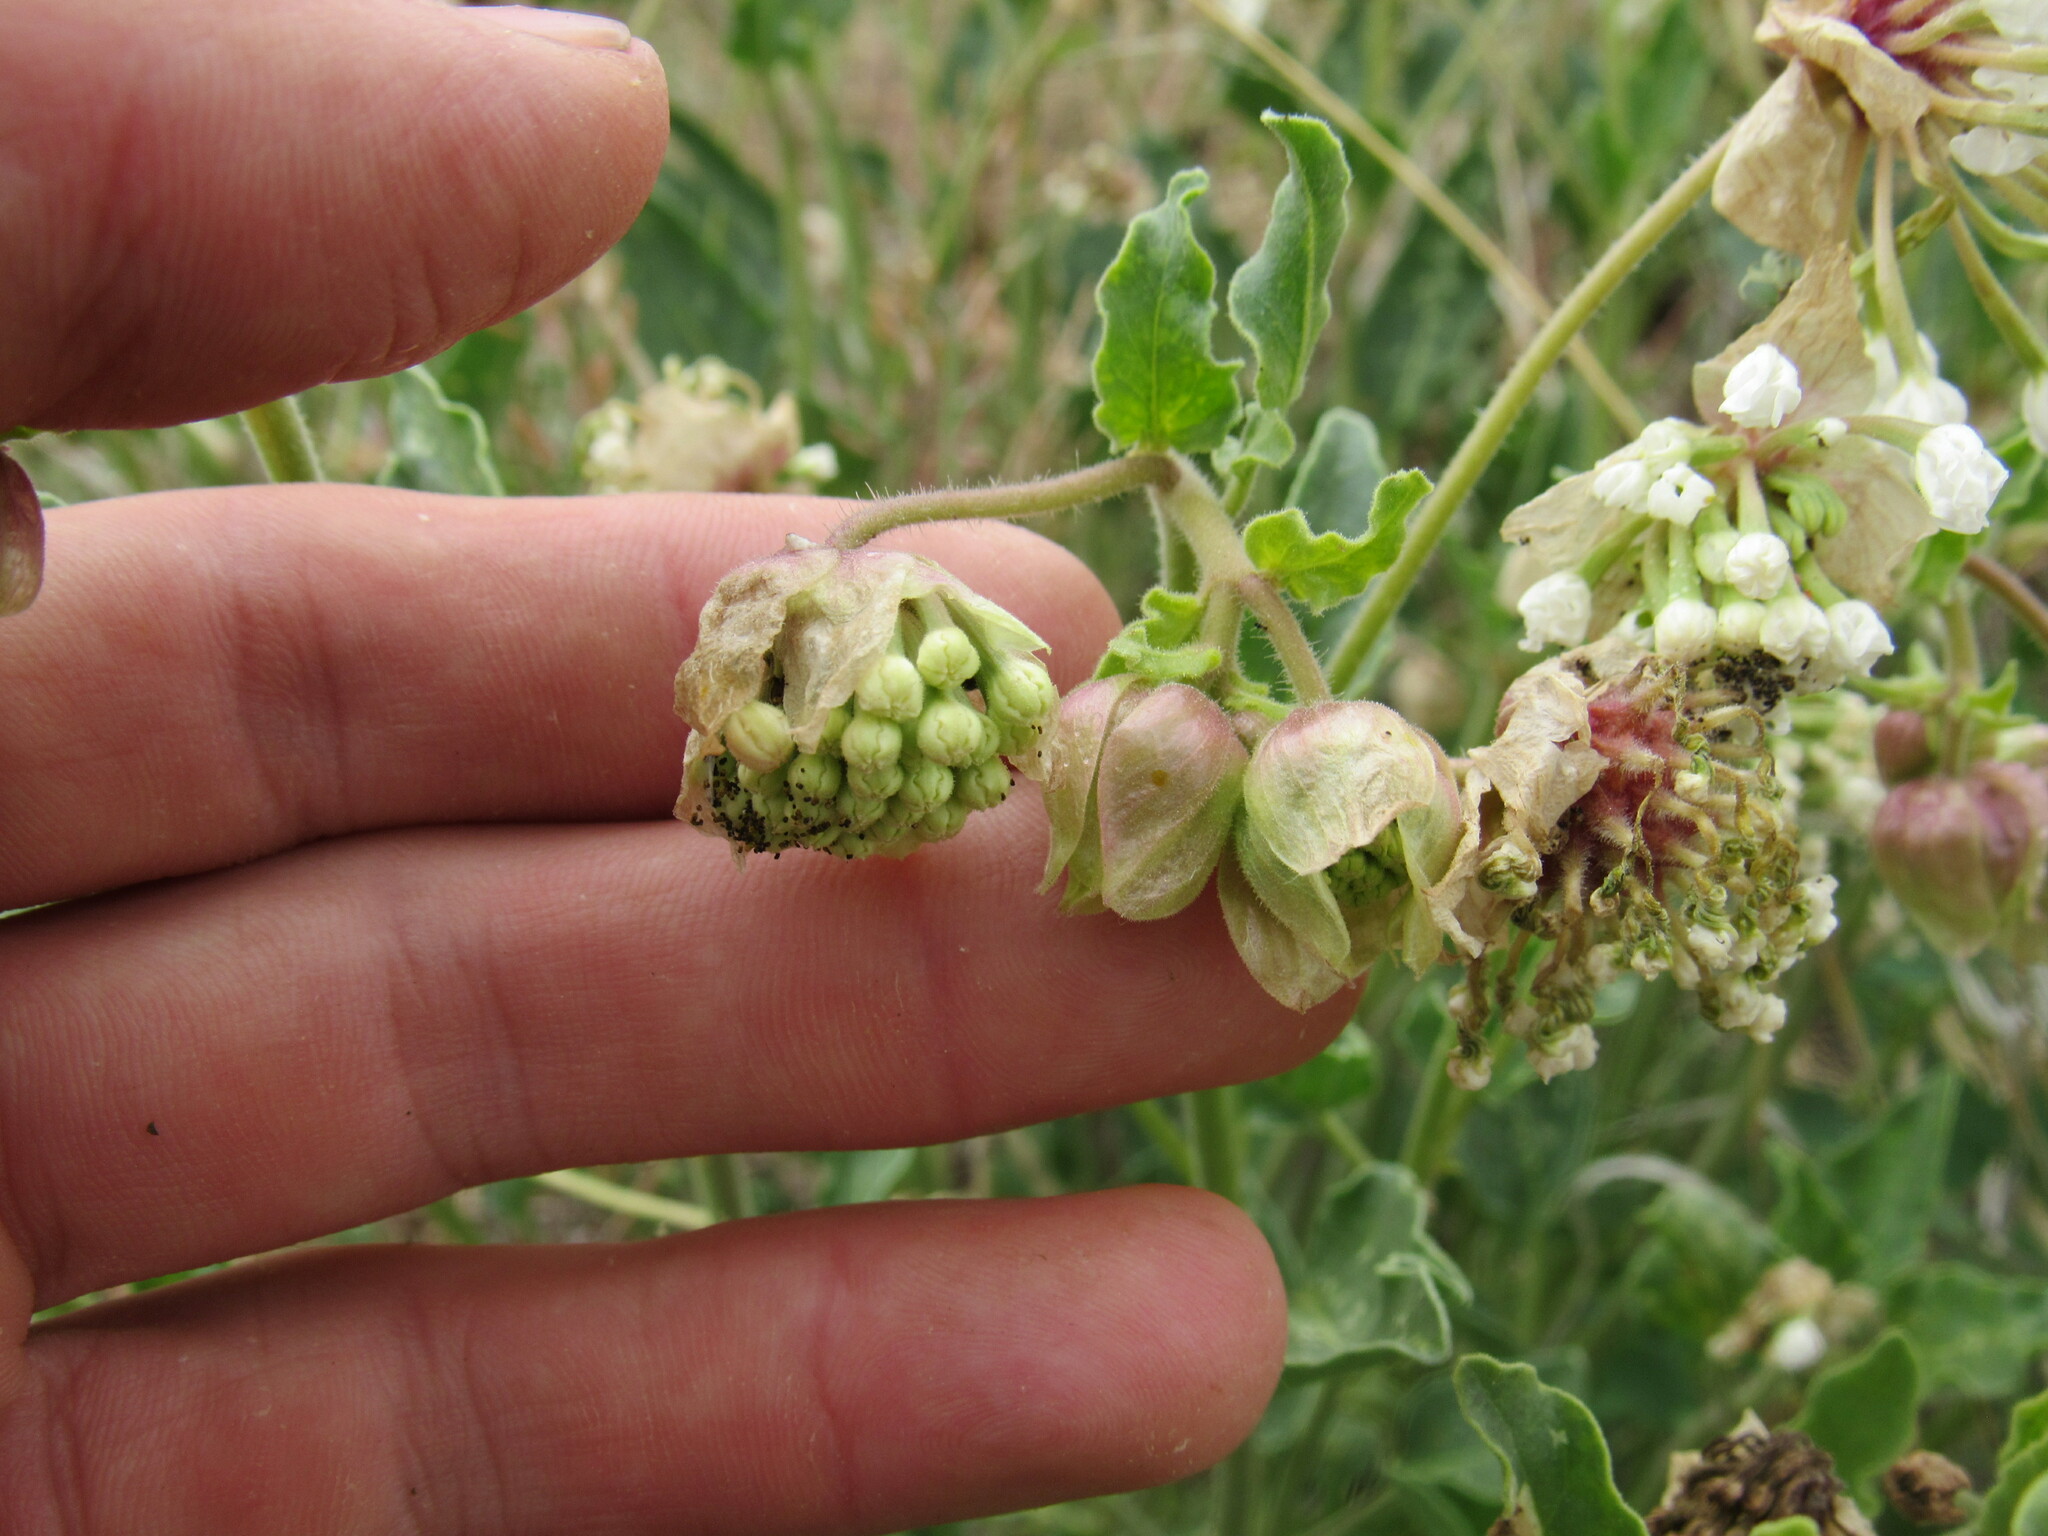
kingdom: Plantae
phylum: Tracheophyta
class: Magnoliopsida
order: Caryophyllales
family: Nyctaginaceae
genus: Abronia
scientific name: Abronia fragrans
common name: Fragrant sand-verbena
